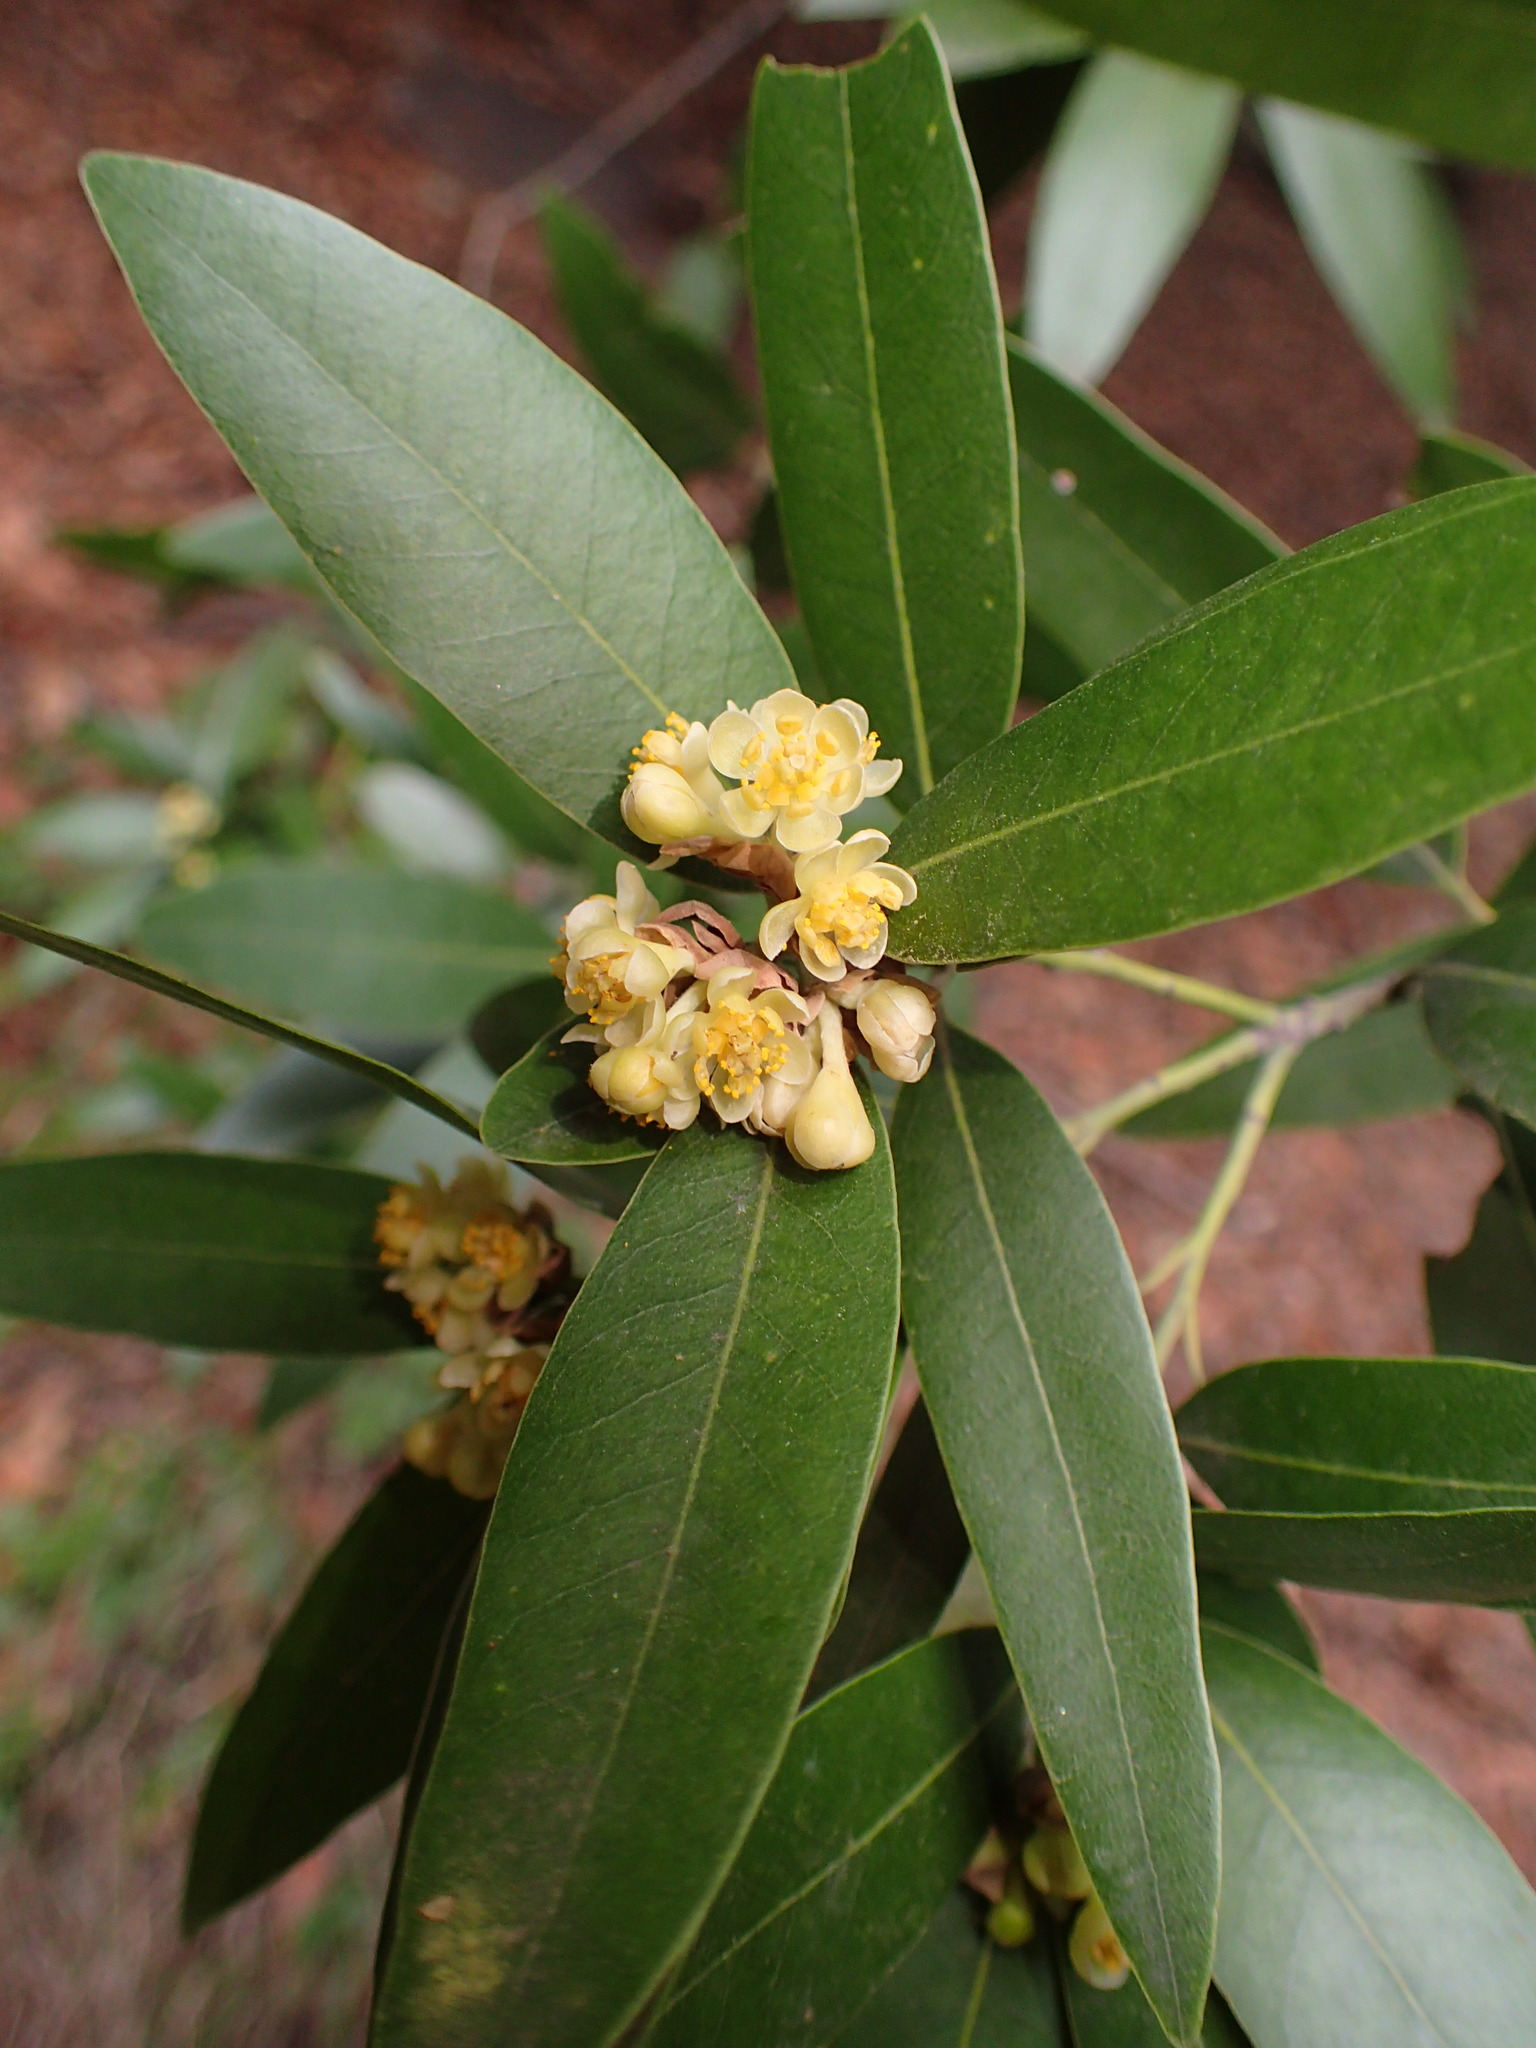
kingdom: Plantae
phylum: Tracheophyta
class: Magnoliopsida
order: Laurales
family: Lauraceae
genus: Umbellularia
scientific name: Umbellularia californica
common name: California bay
